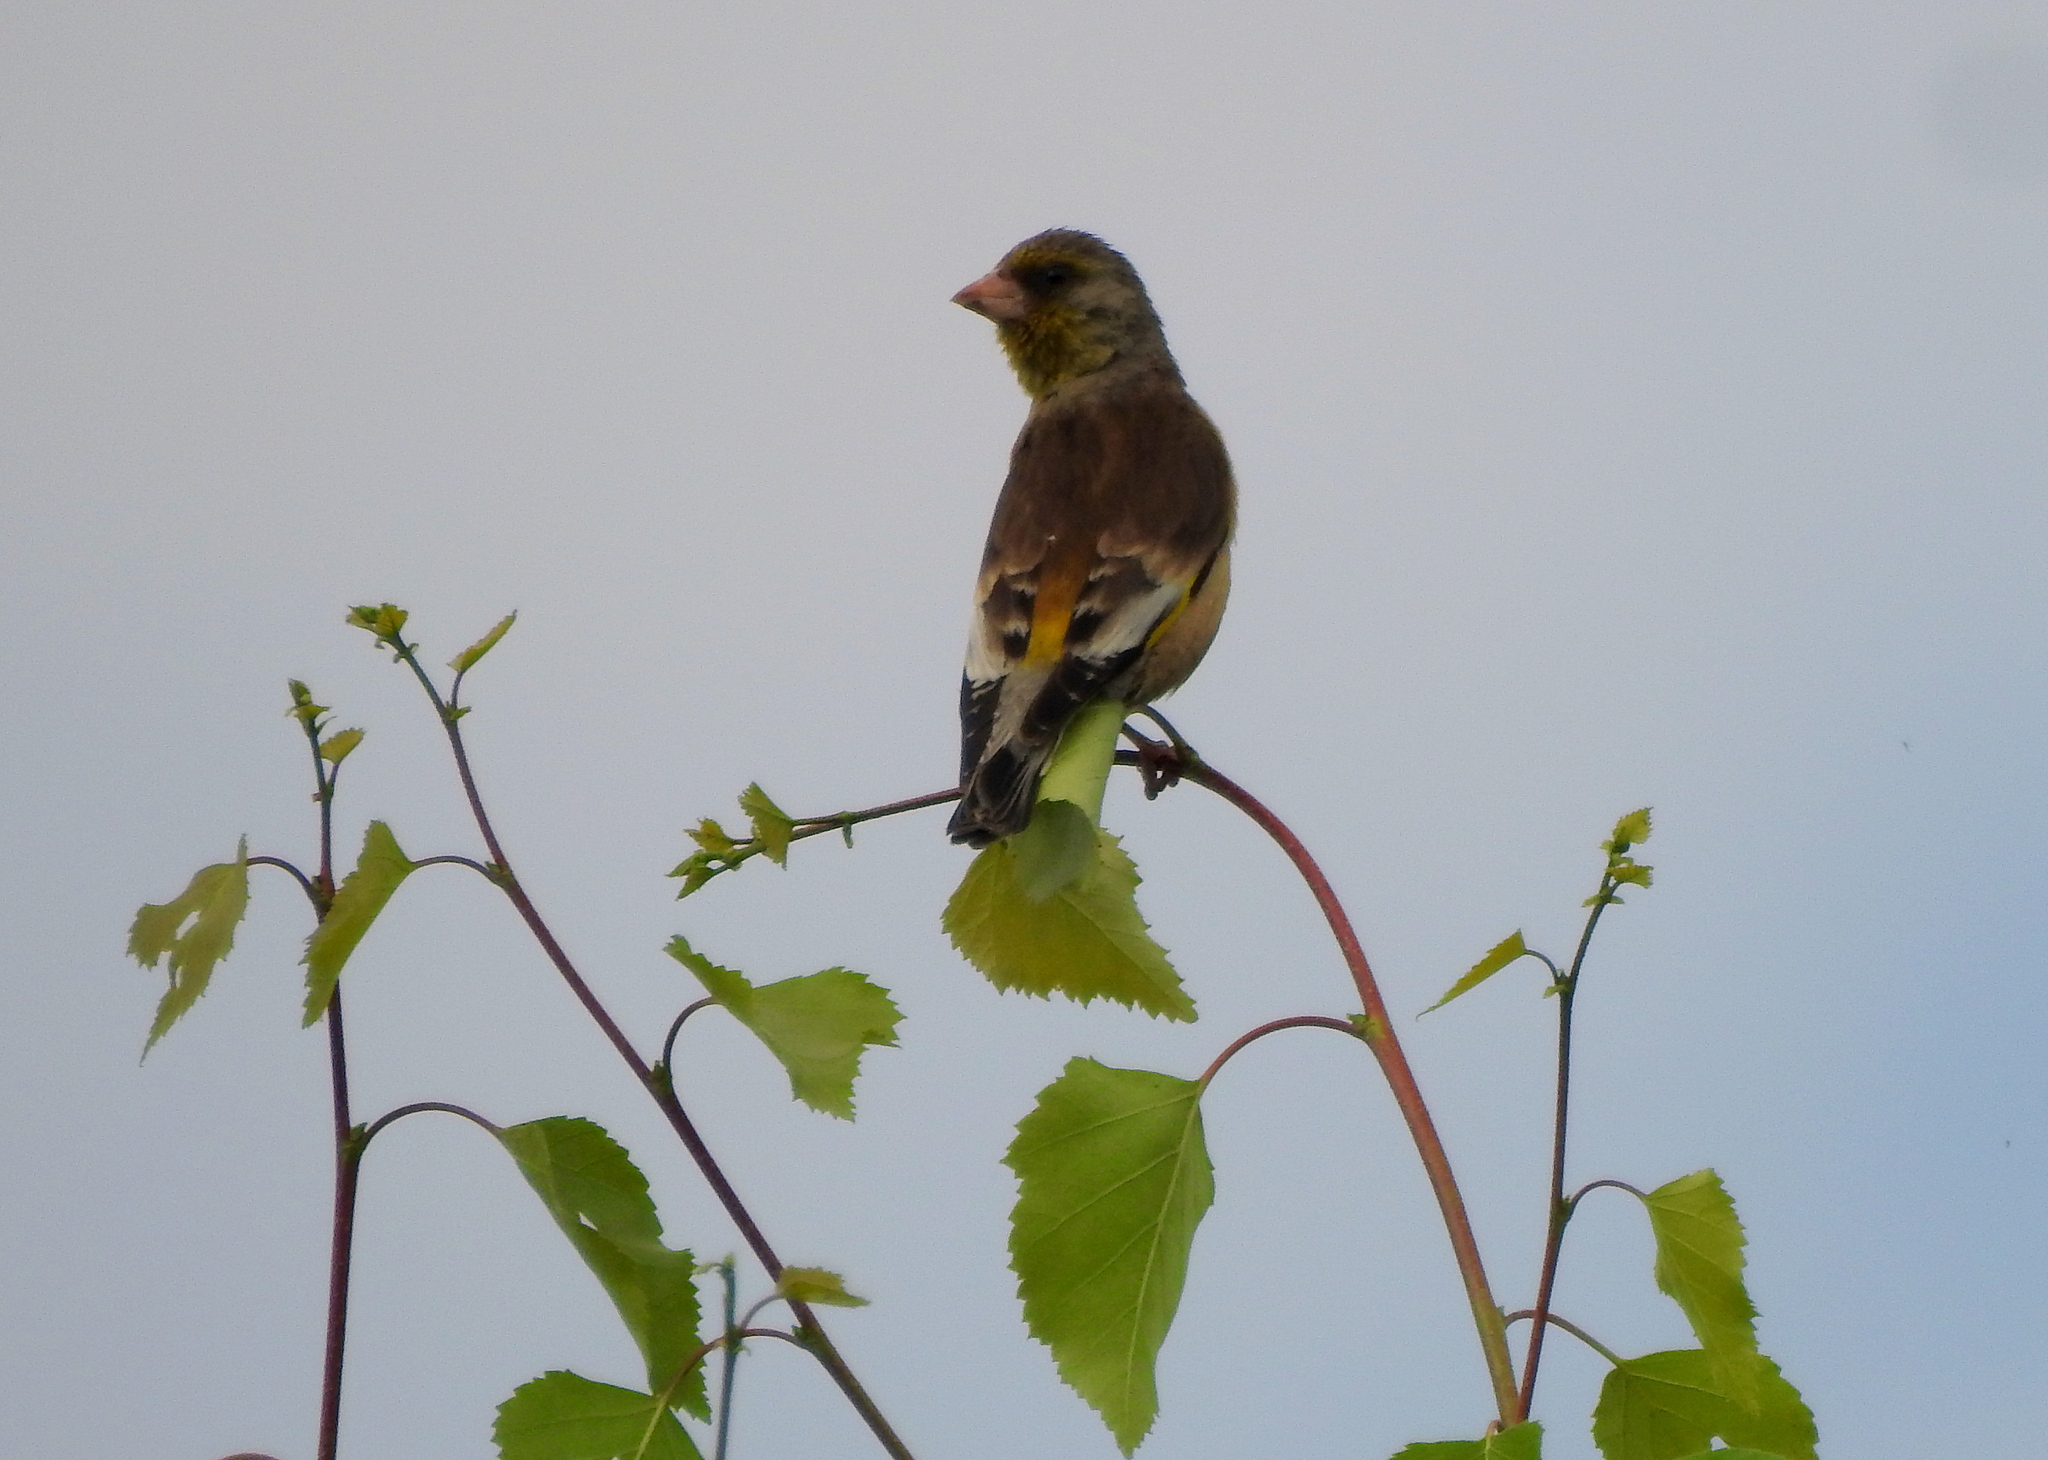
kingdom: Plantae
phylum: Tracheophyta
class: Liliopsida
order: Poales
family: Poaceae
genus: Chloris
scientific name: Chloris sinica
